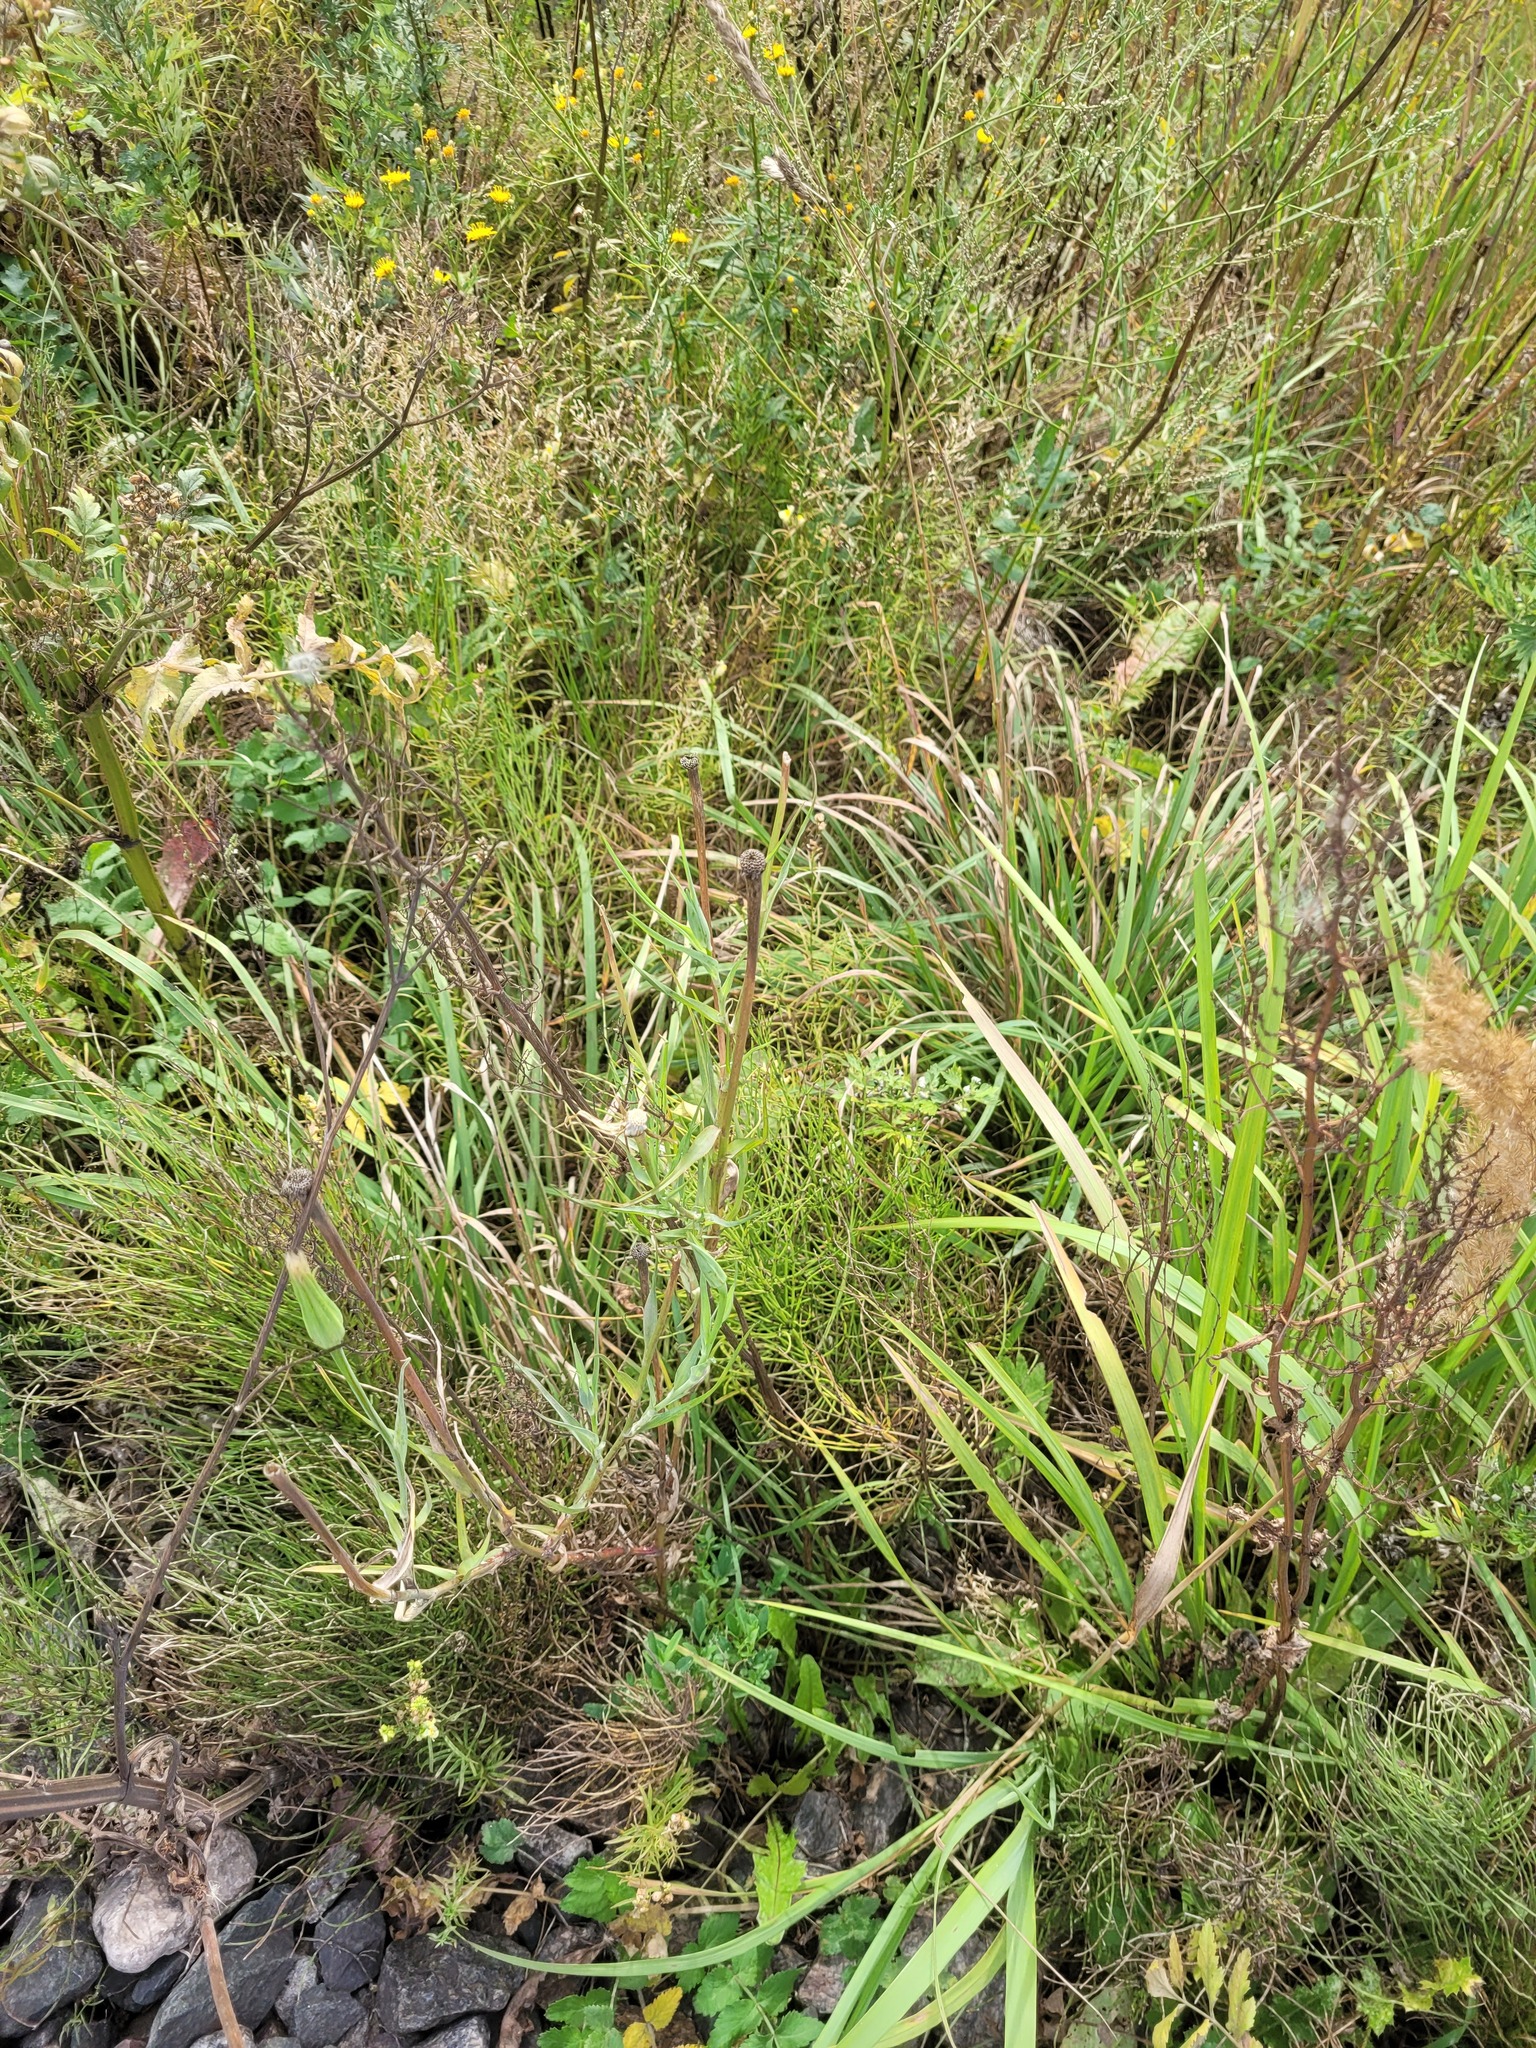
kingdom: Plantae
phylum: Tracheophyta
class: Magnoliopsida
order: Asterales
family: Asteraceae
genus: Tragopogon
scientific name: Tragopogon dubius
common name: Yellow salsify
